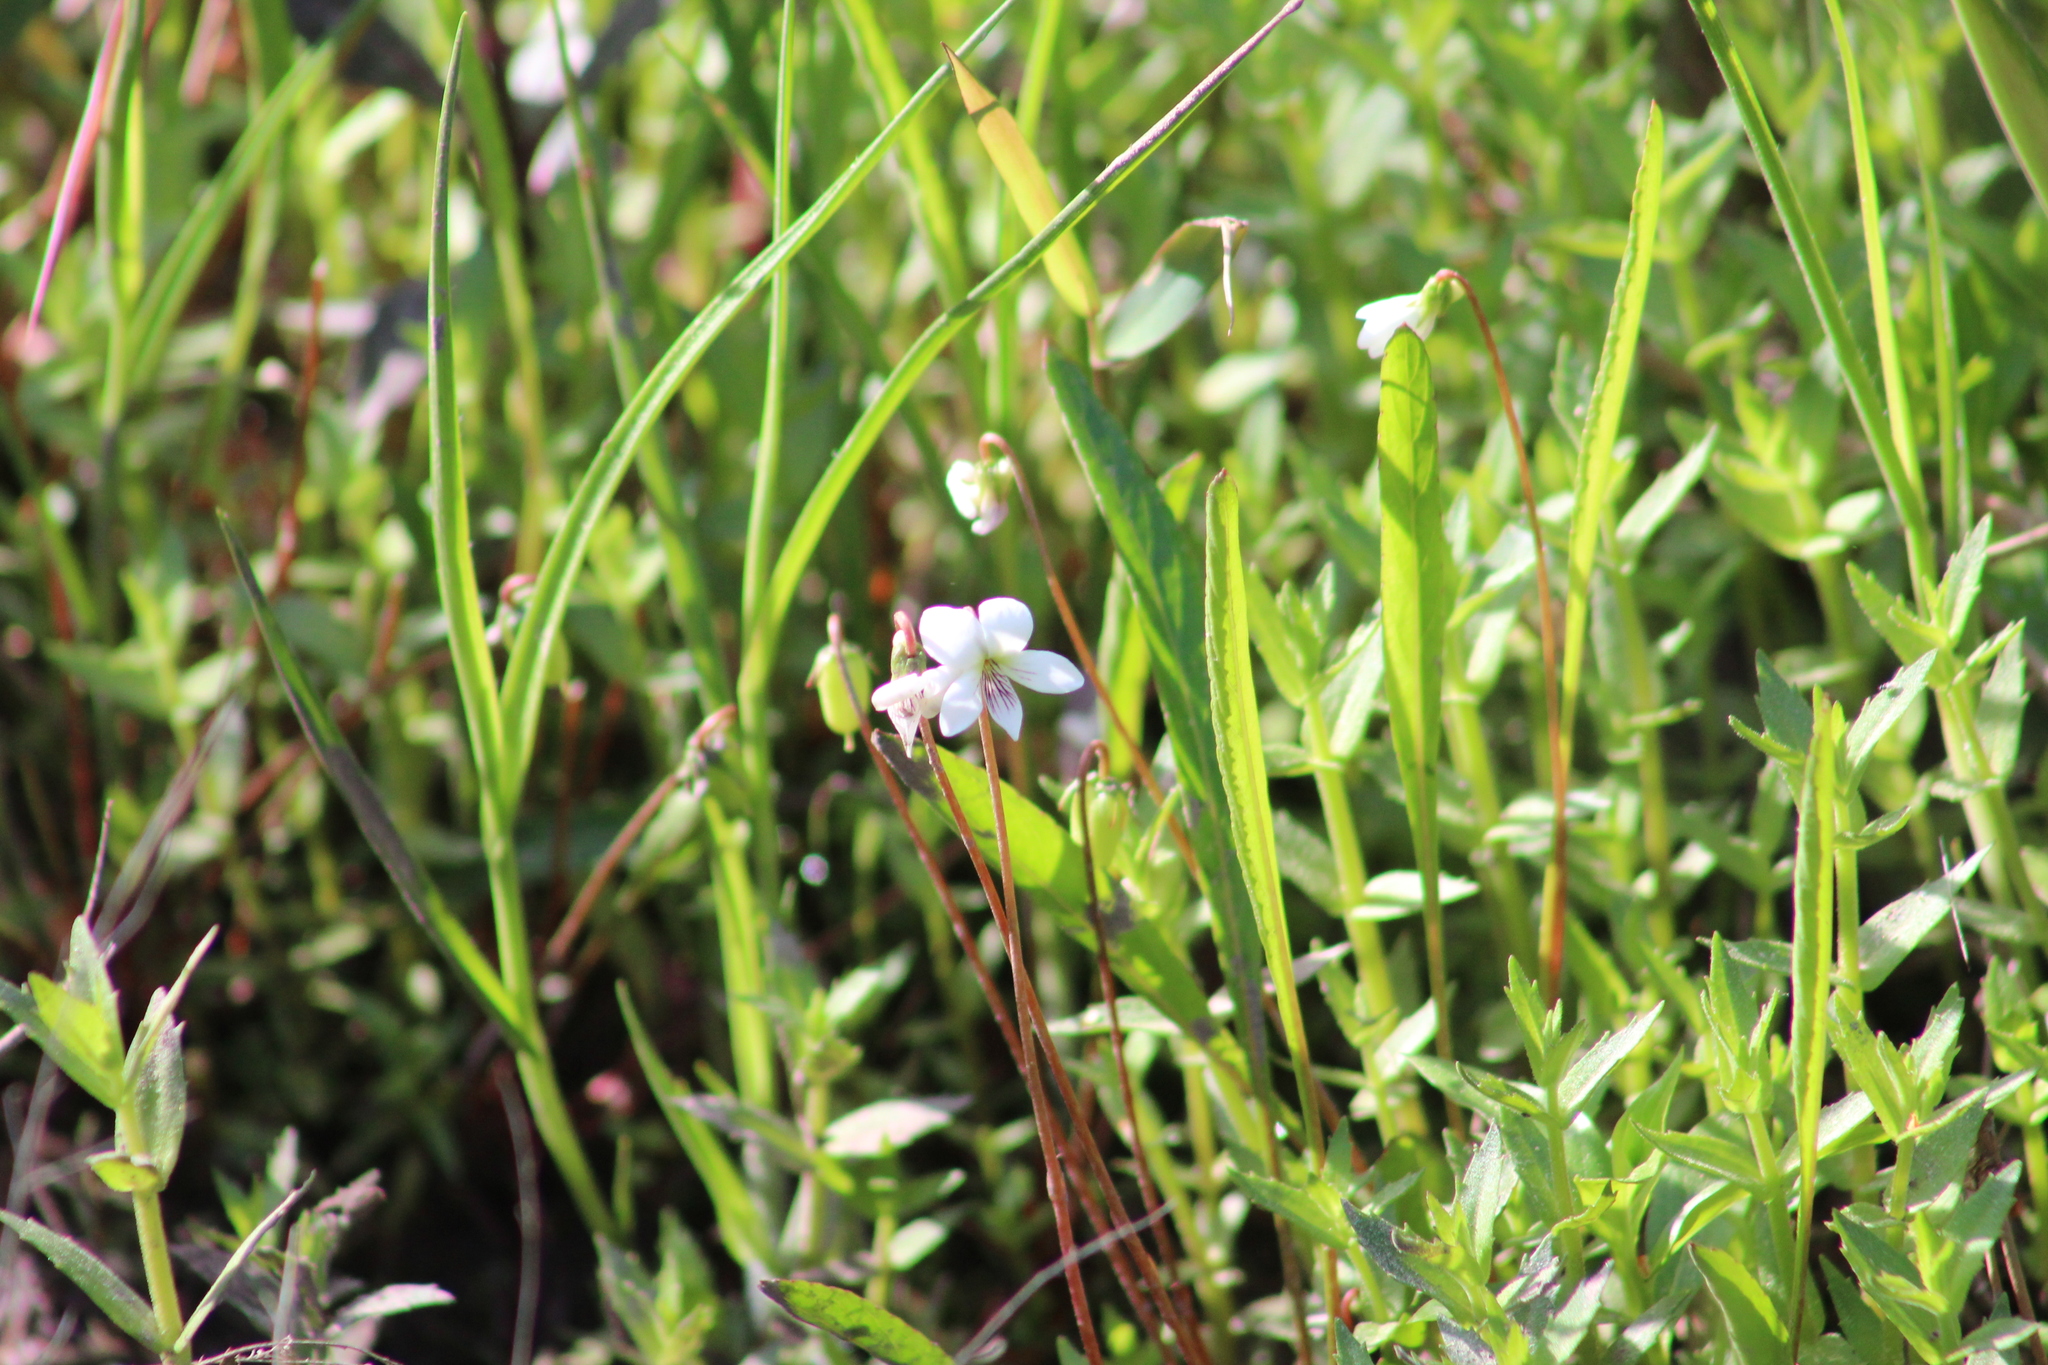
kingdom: Plantae
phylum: Tracheophyta
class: Magnoliopsida
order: Malpighiales
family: Violaceae
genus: Viola
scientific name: Viola vittata
